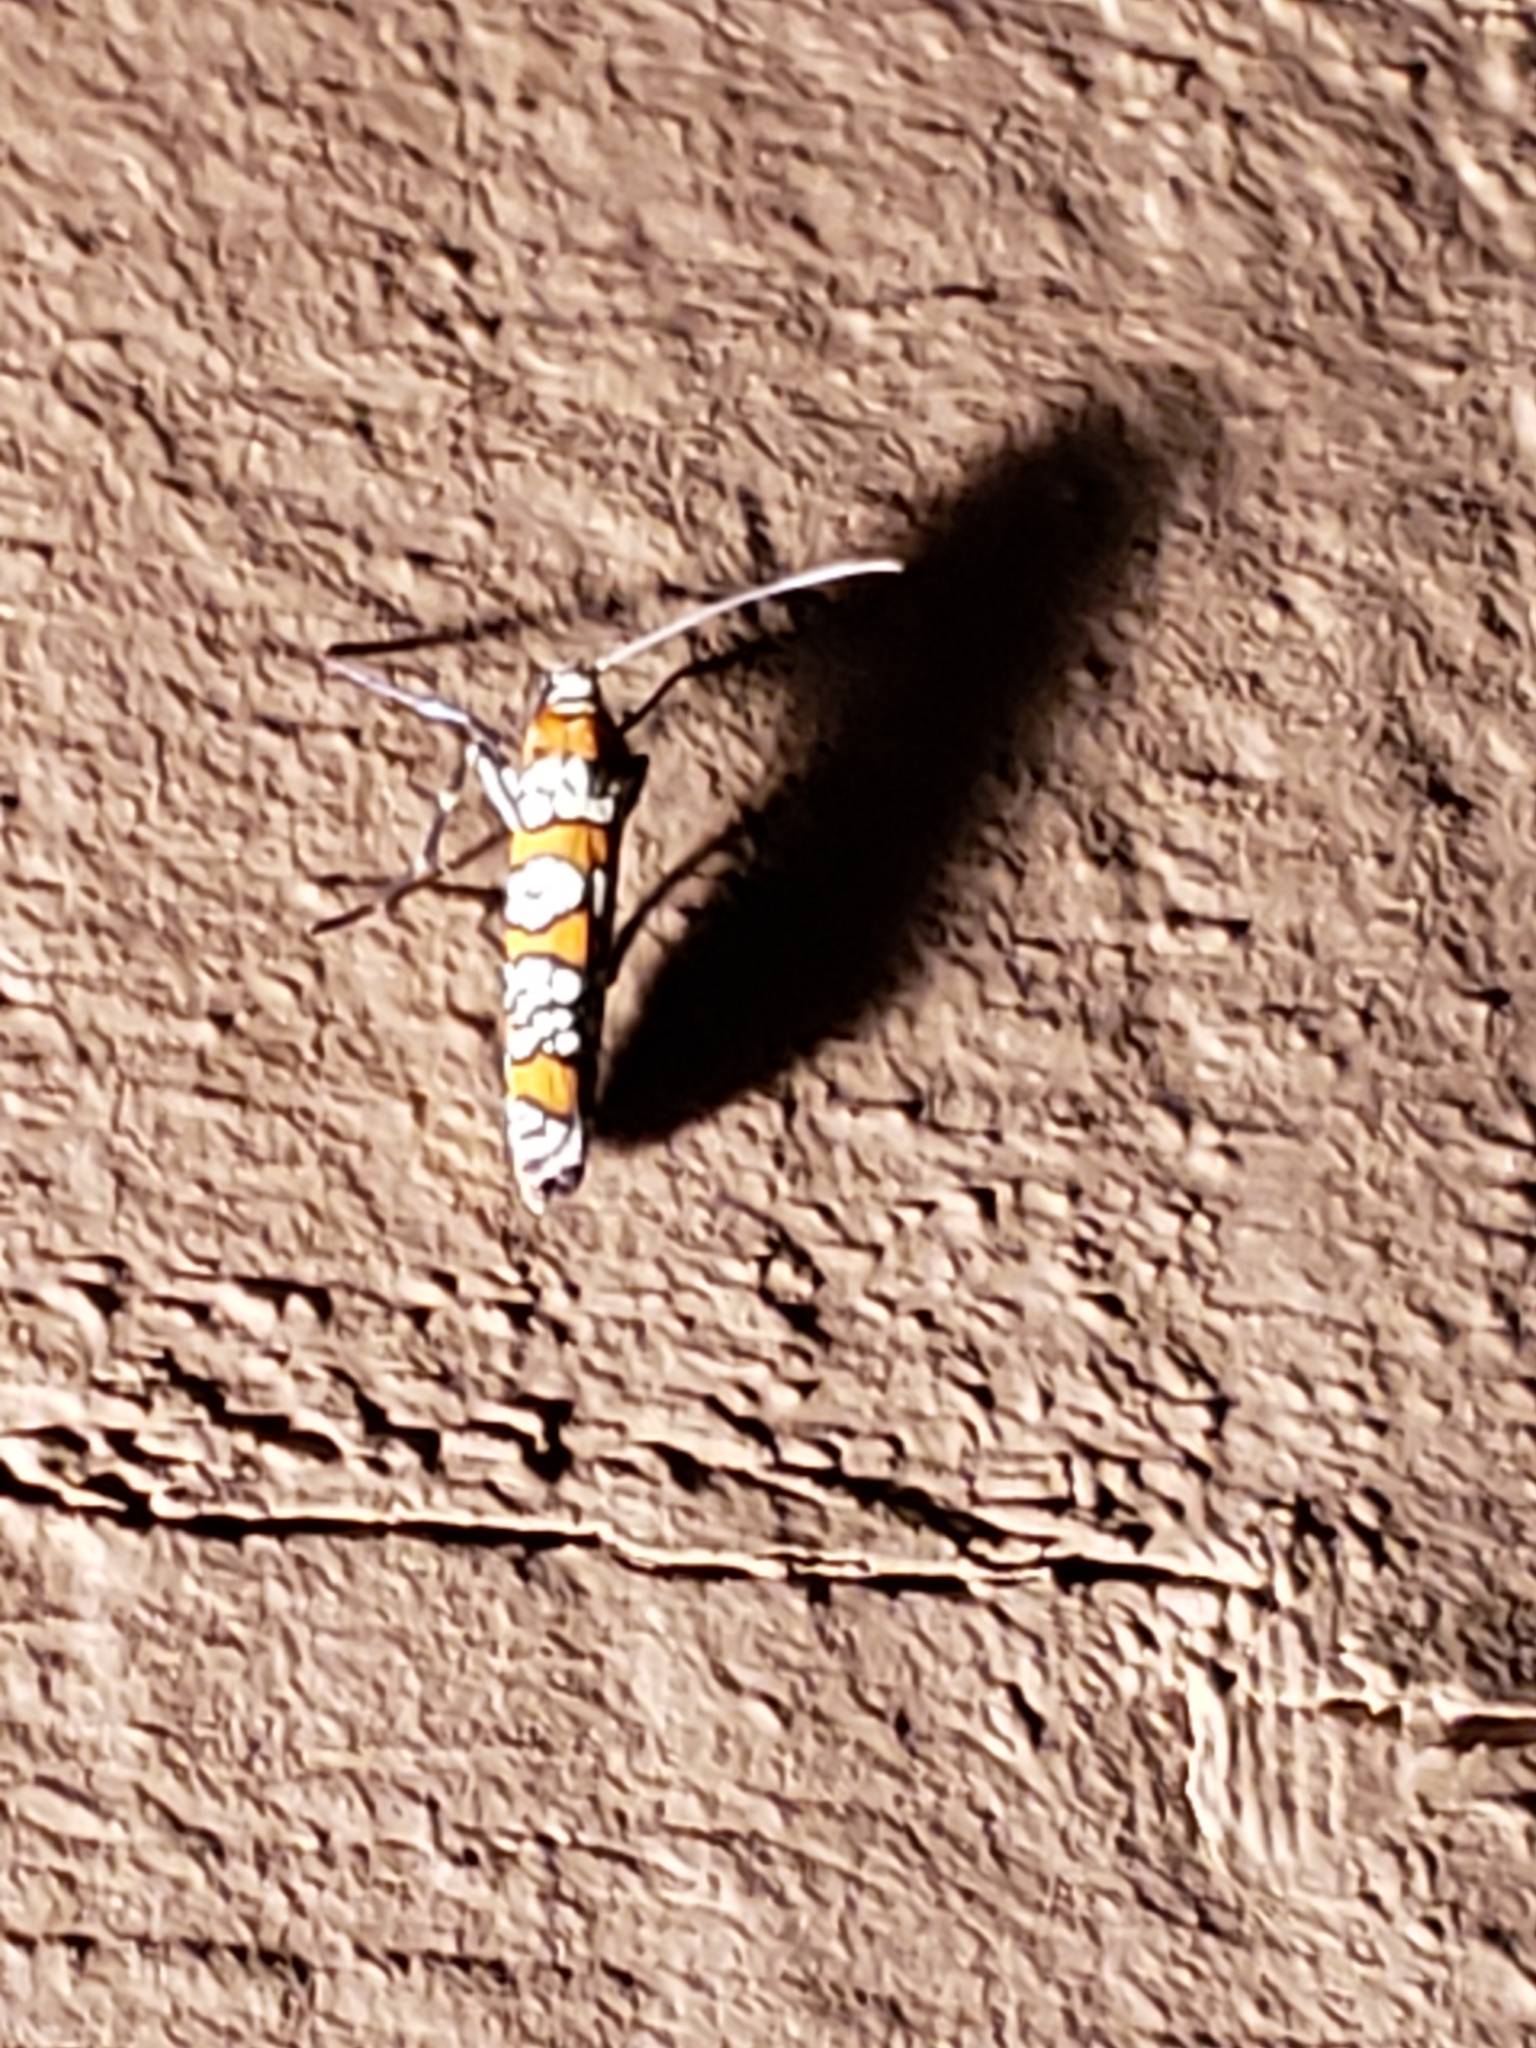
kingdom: Animalia
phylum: Arthropoda
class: Insecta
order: Lepidoptera
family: Attevidae
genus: Atteva
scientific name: Atteva punctella
